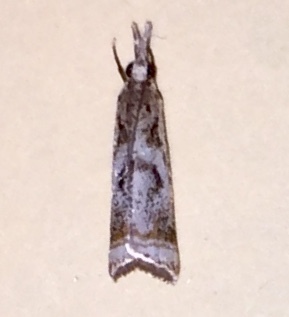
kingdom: Animalia
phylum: Arthropoda
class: Insecta
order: Lepidoptera
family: Crambidae
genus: Microcrambus
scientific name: Microcrambus elegans
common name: Elegant grass-veneer
